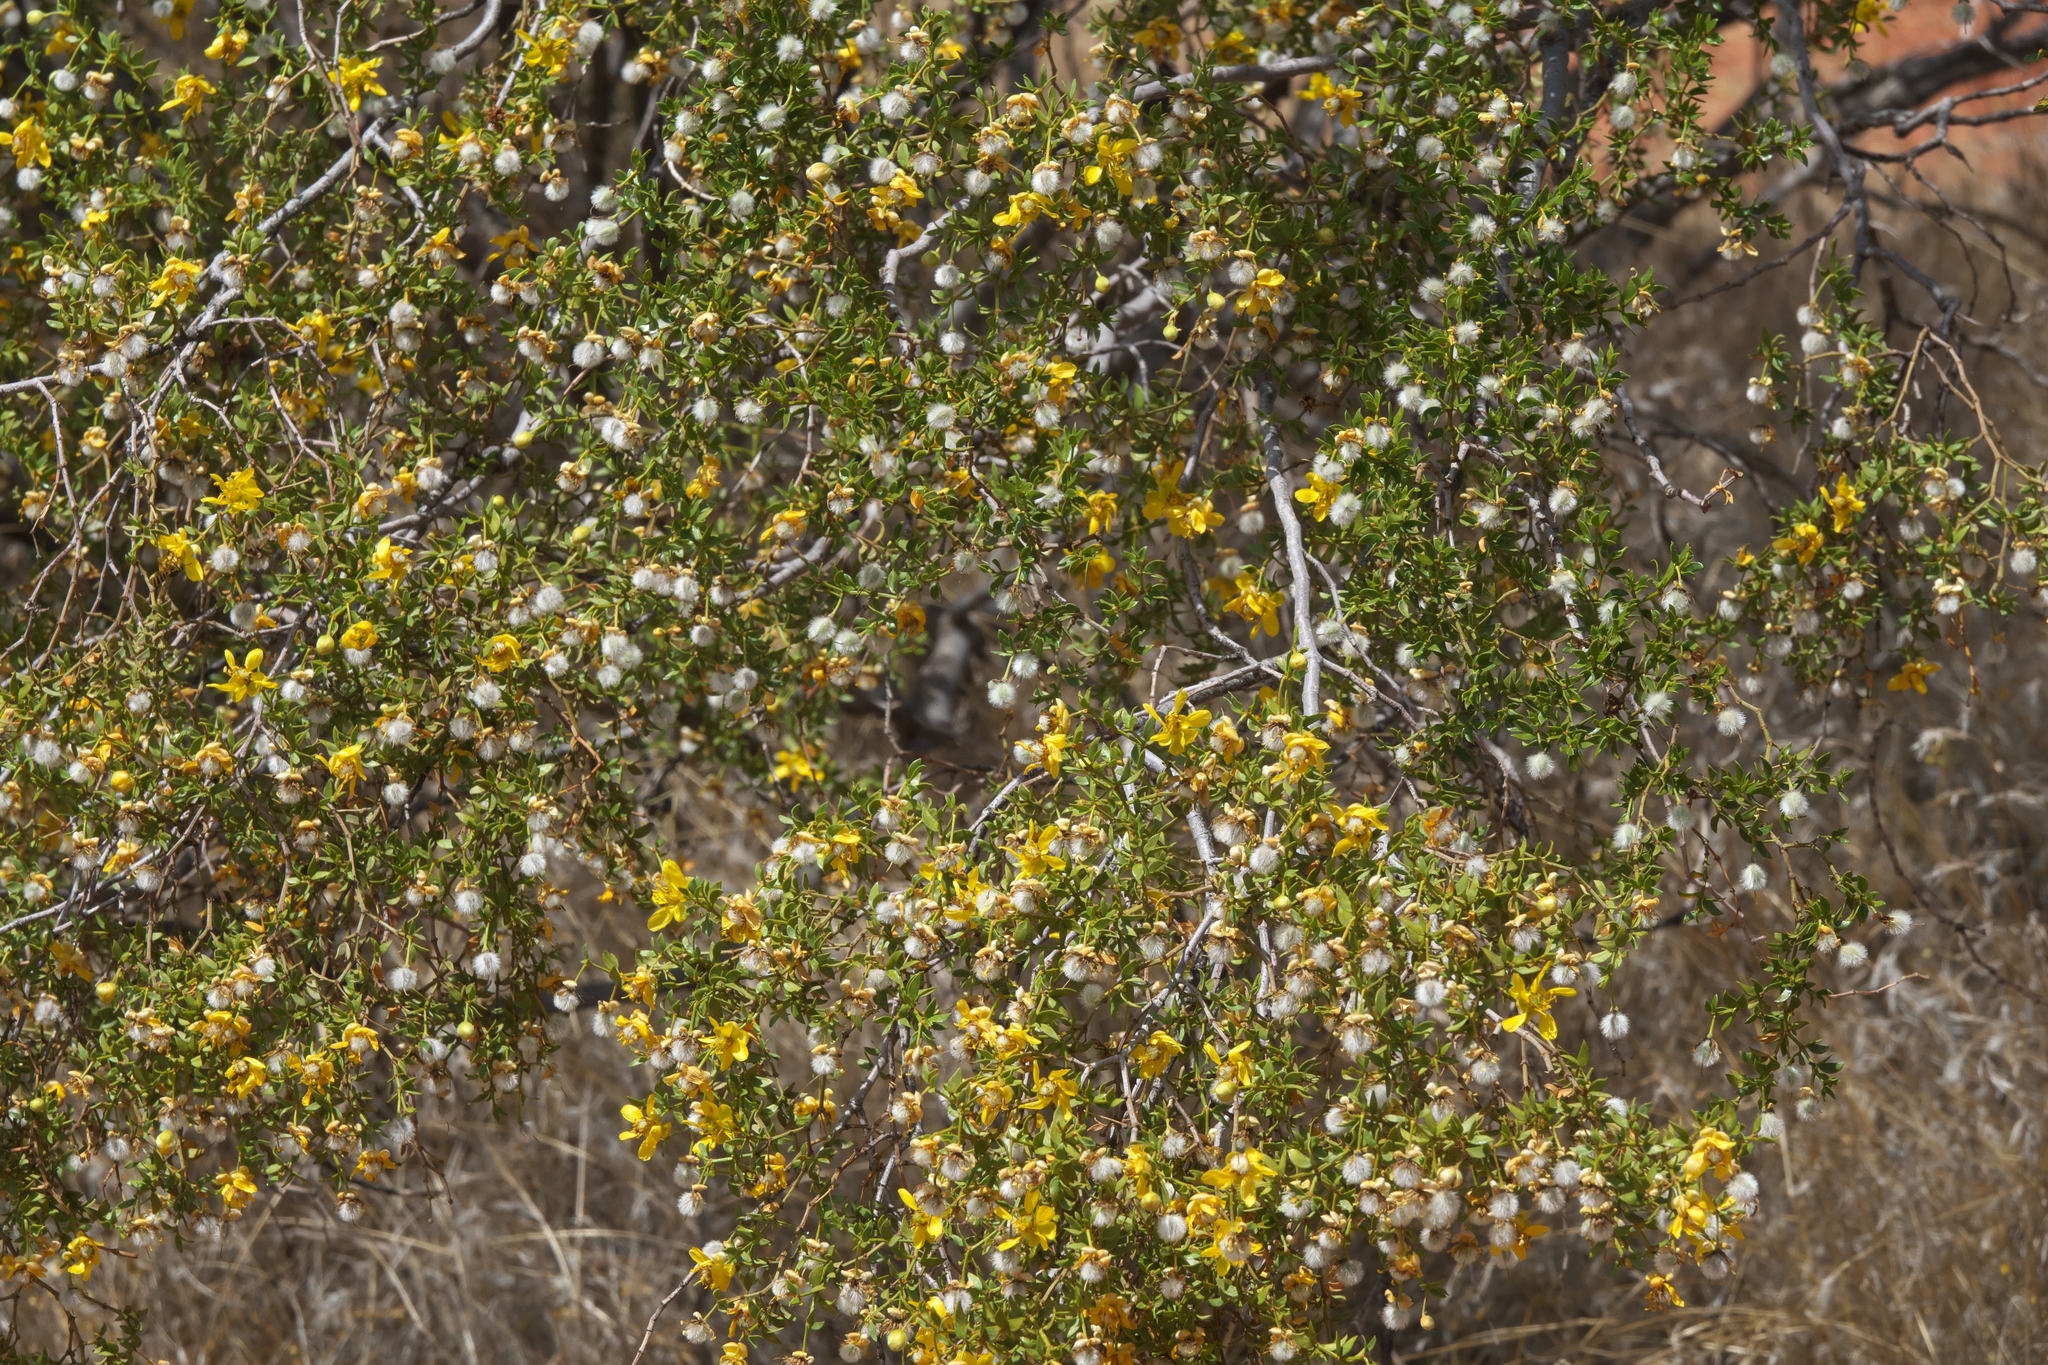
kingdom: Plantae
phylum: Tracheophyta
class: Magnoliopsida
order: Zygophyllales
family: Zygophyllaceae
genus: Larrea
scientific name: Larrea tridentata
